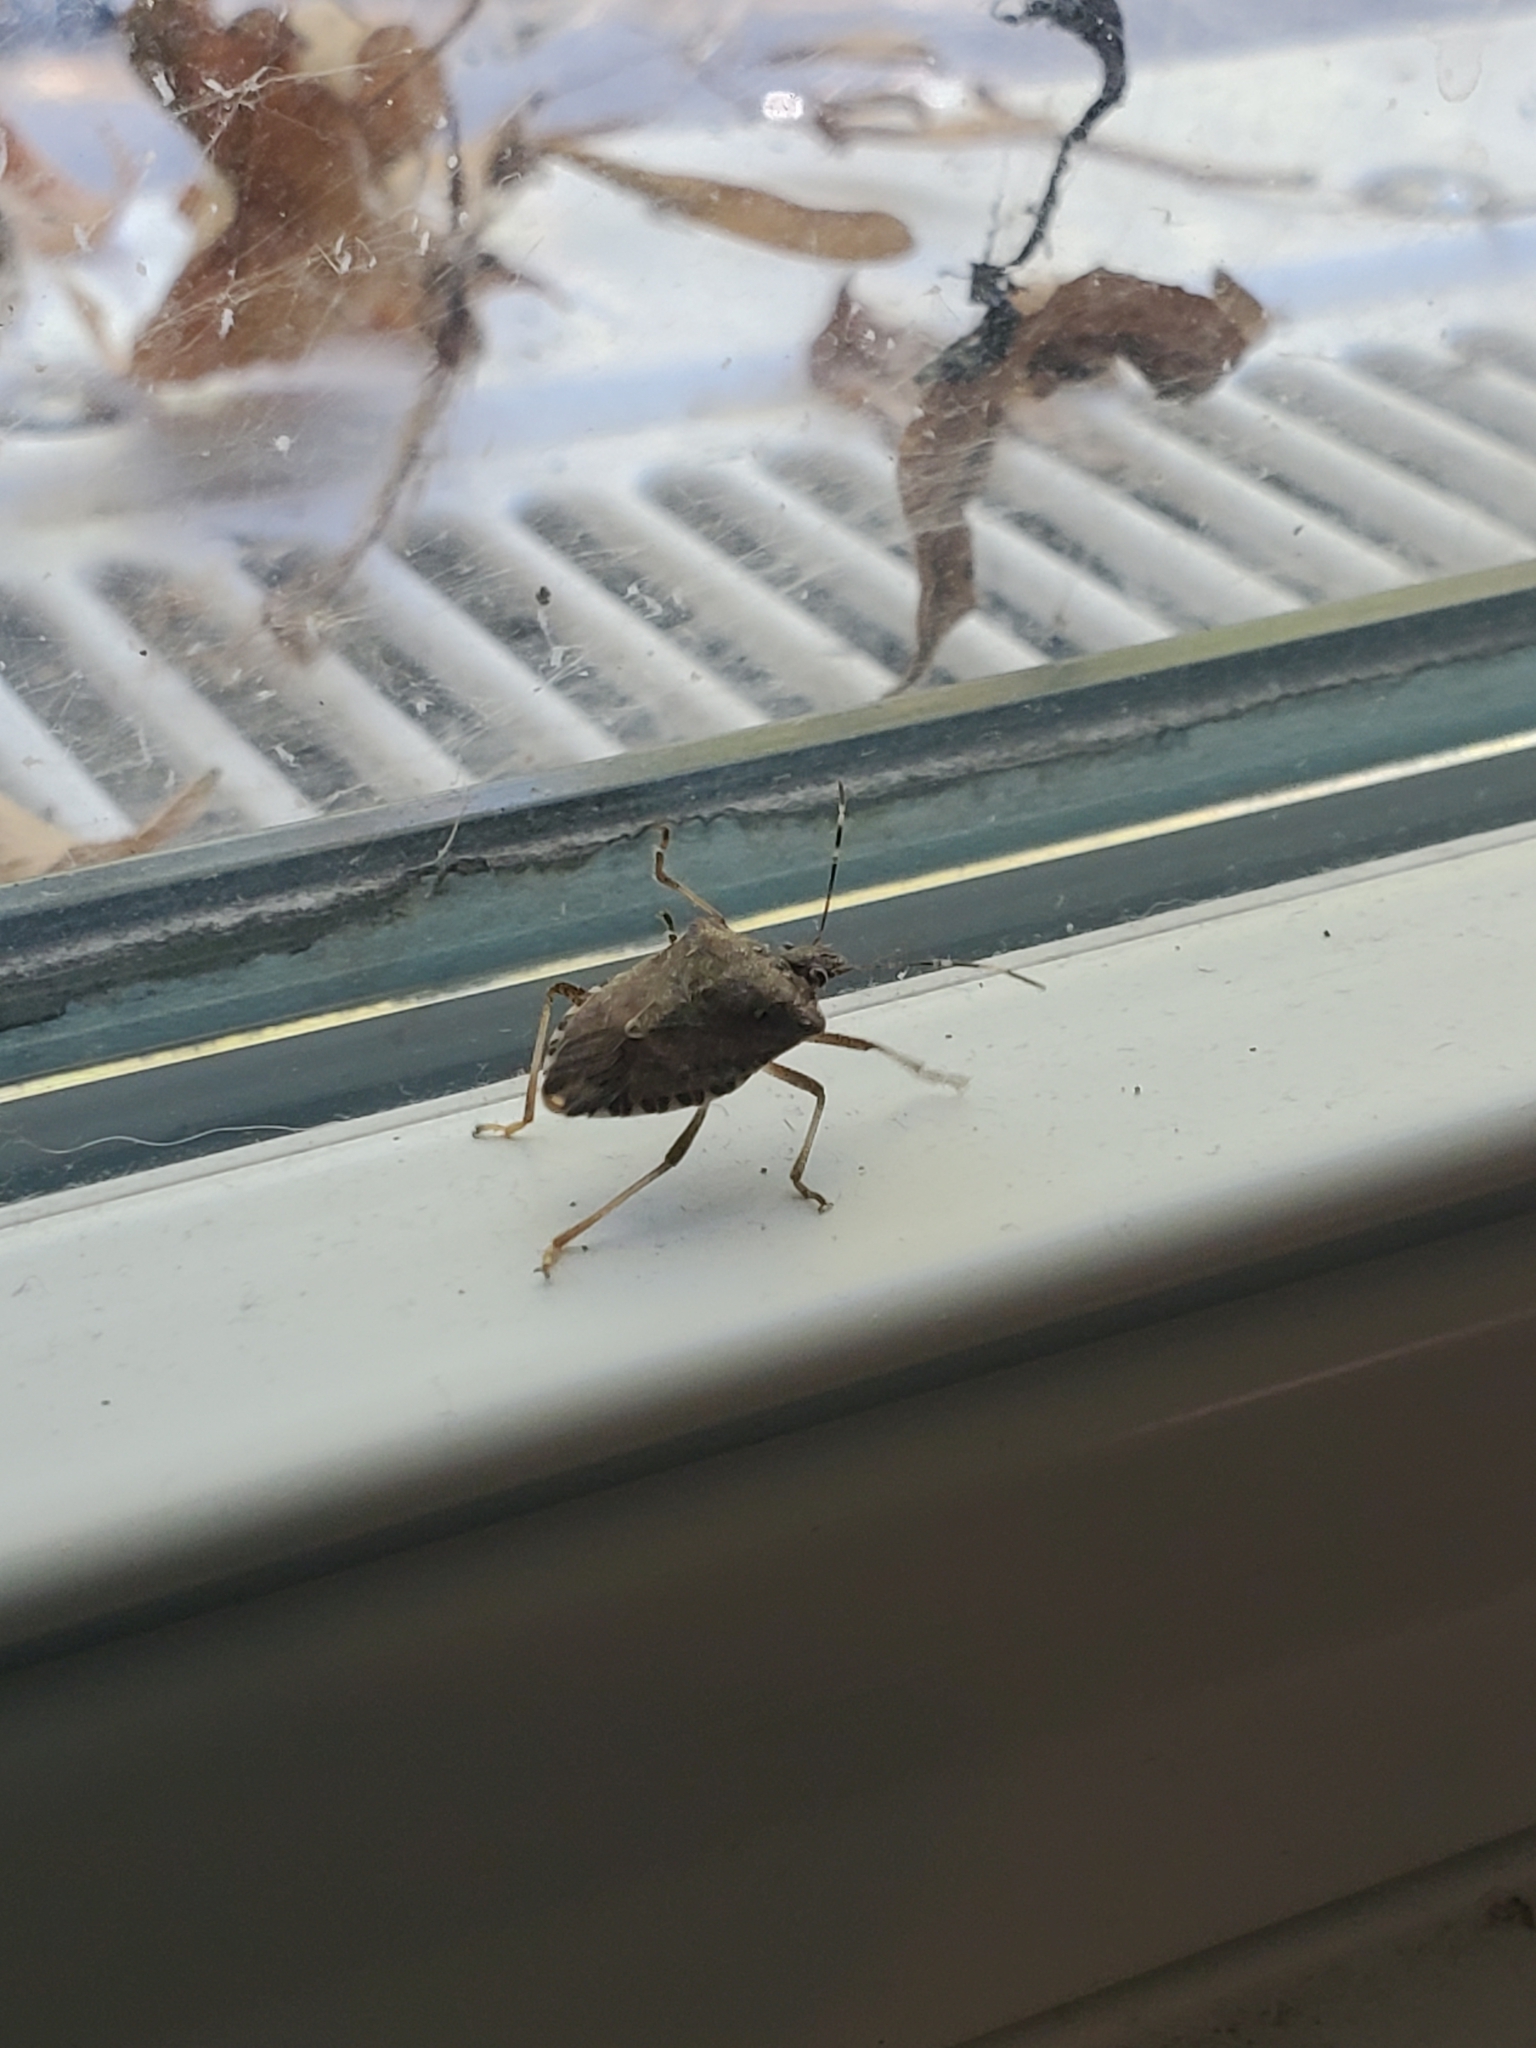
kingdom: Animalia
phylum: Arthropoda
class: Insecta
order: Hemiptera
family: Pentatomidae
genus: Halyomorpha
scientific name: Halyomorpha halys
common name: Brown marmorated stink bug
